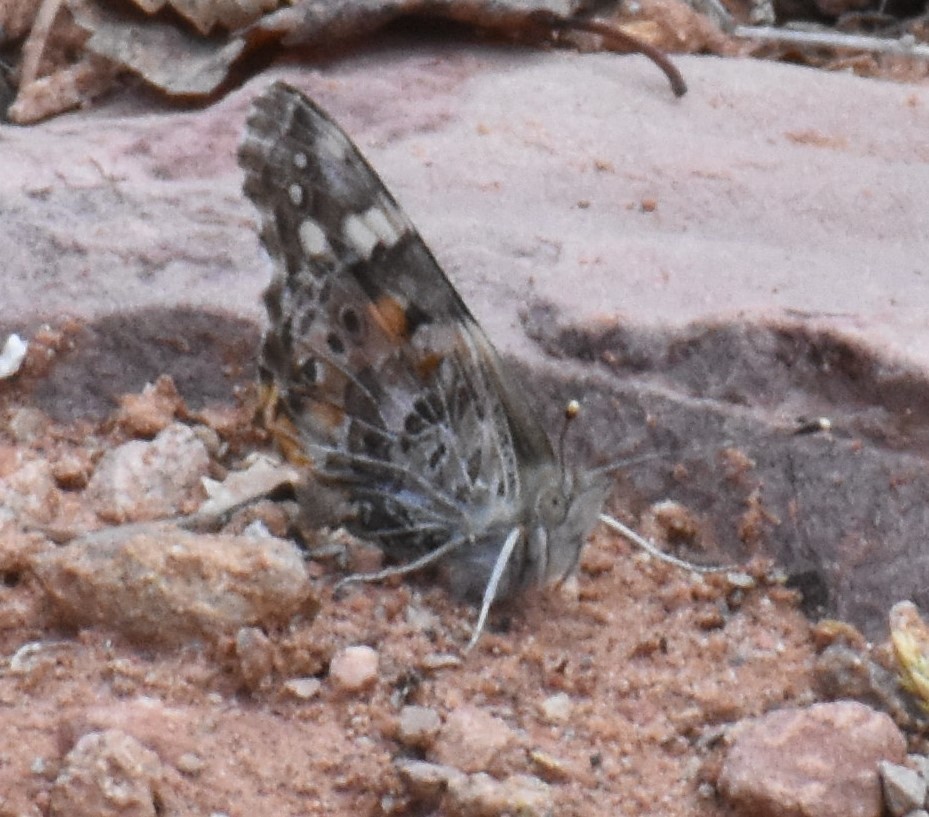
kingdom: Animalia
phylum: Arthropoda
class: Insecta
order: Lepidoptera
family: Nymphalidae
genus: Vanessa
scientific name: Vanessa cardui
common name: Painted lady
